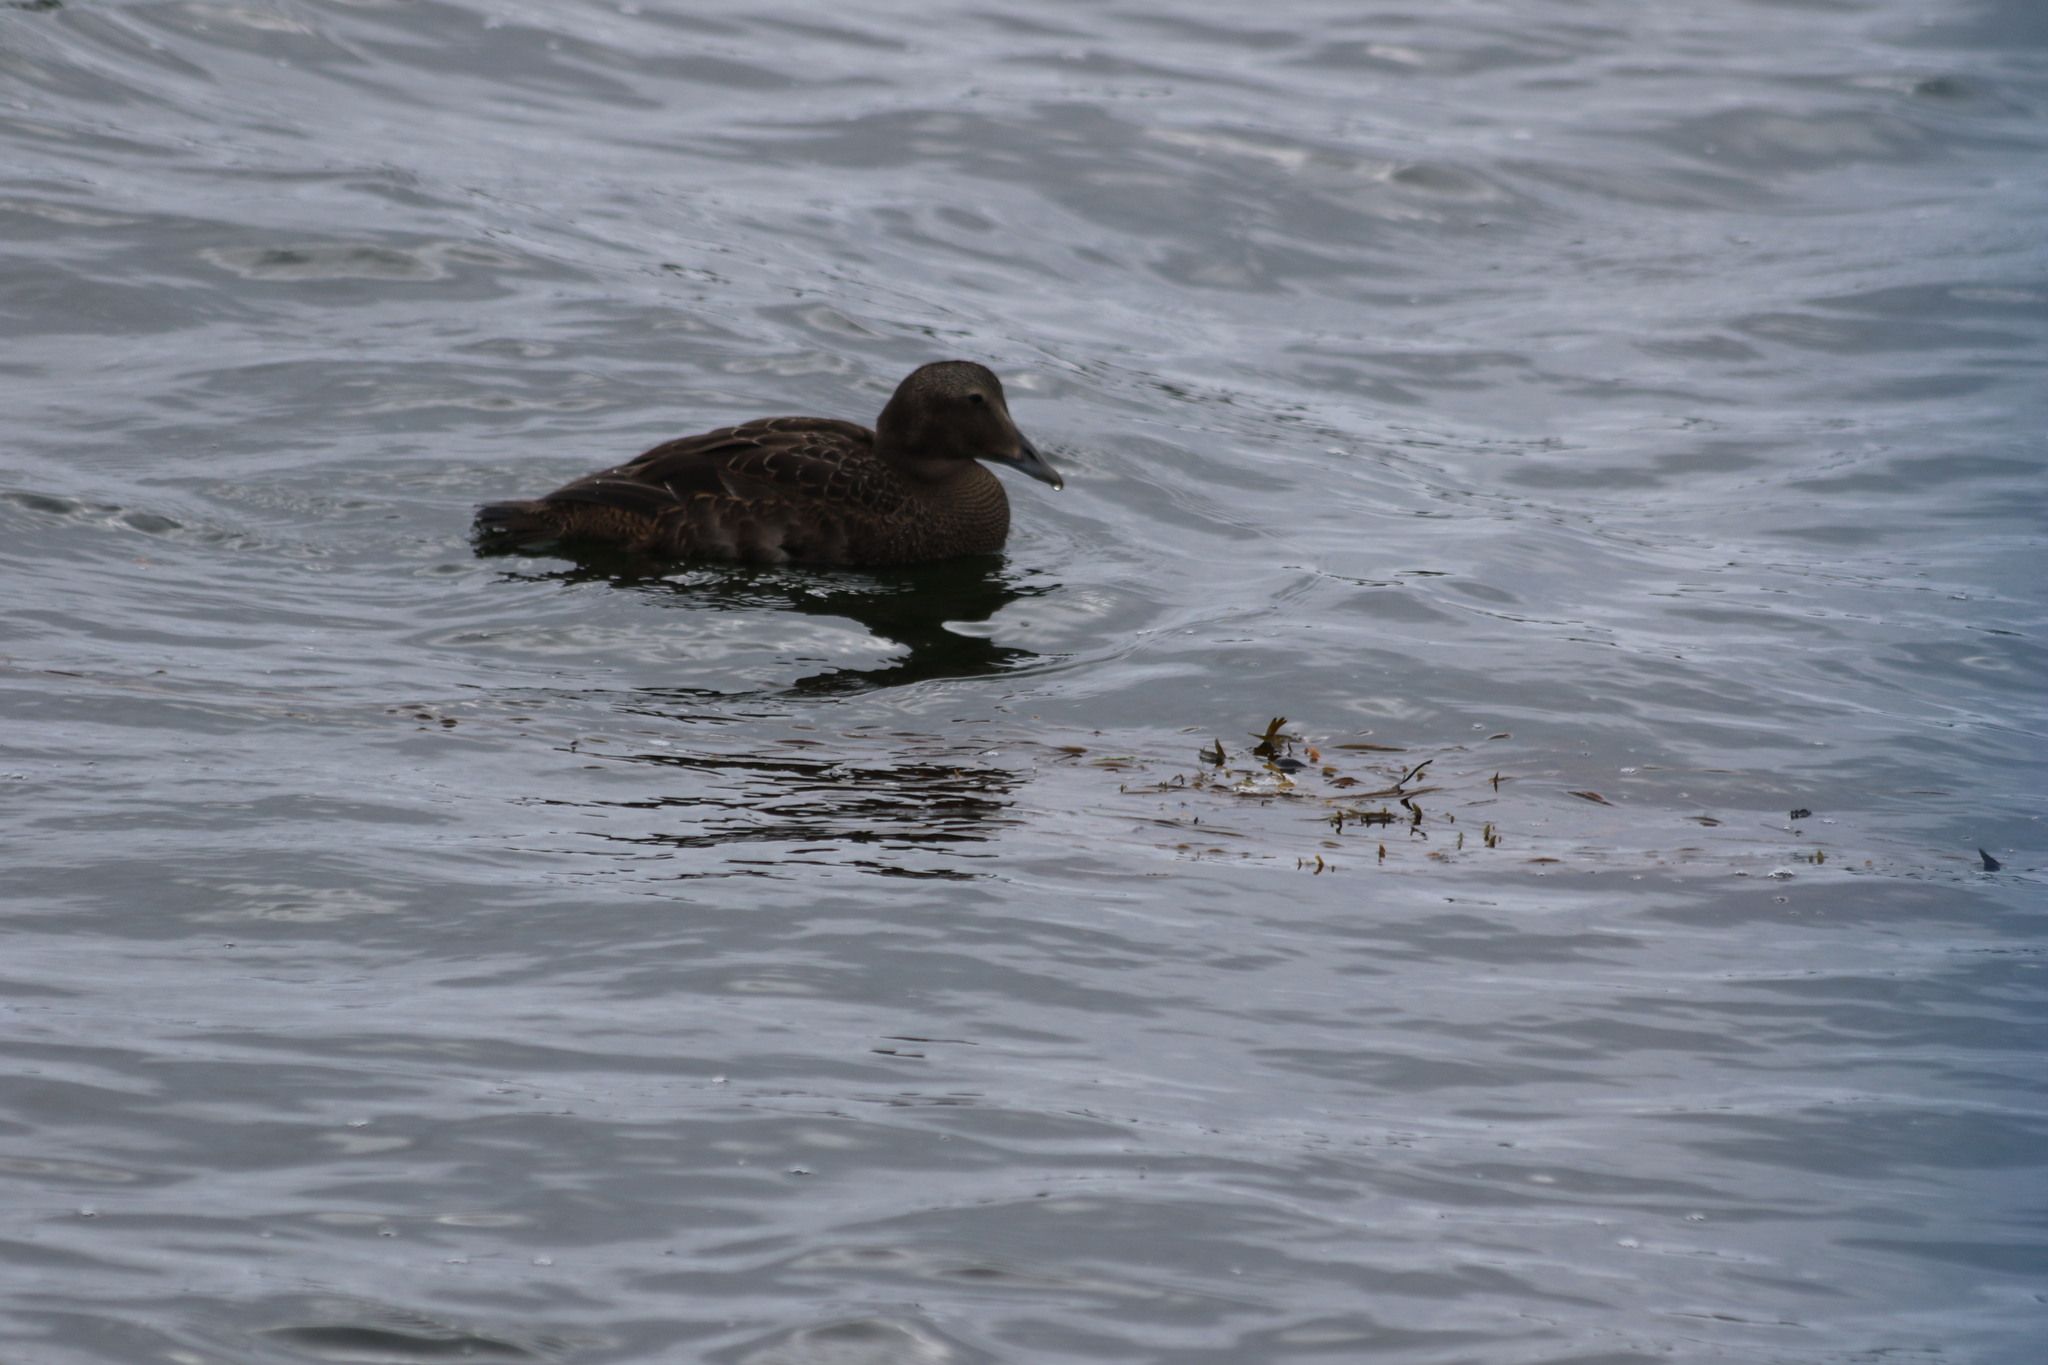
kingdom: Animalia
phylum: Chordata
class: Aves
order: Anseriformes
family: Anatidae
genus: Somateria
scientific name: Somateria mollissima
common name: Common eider
